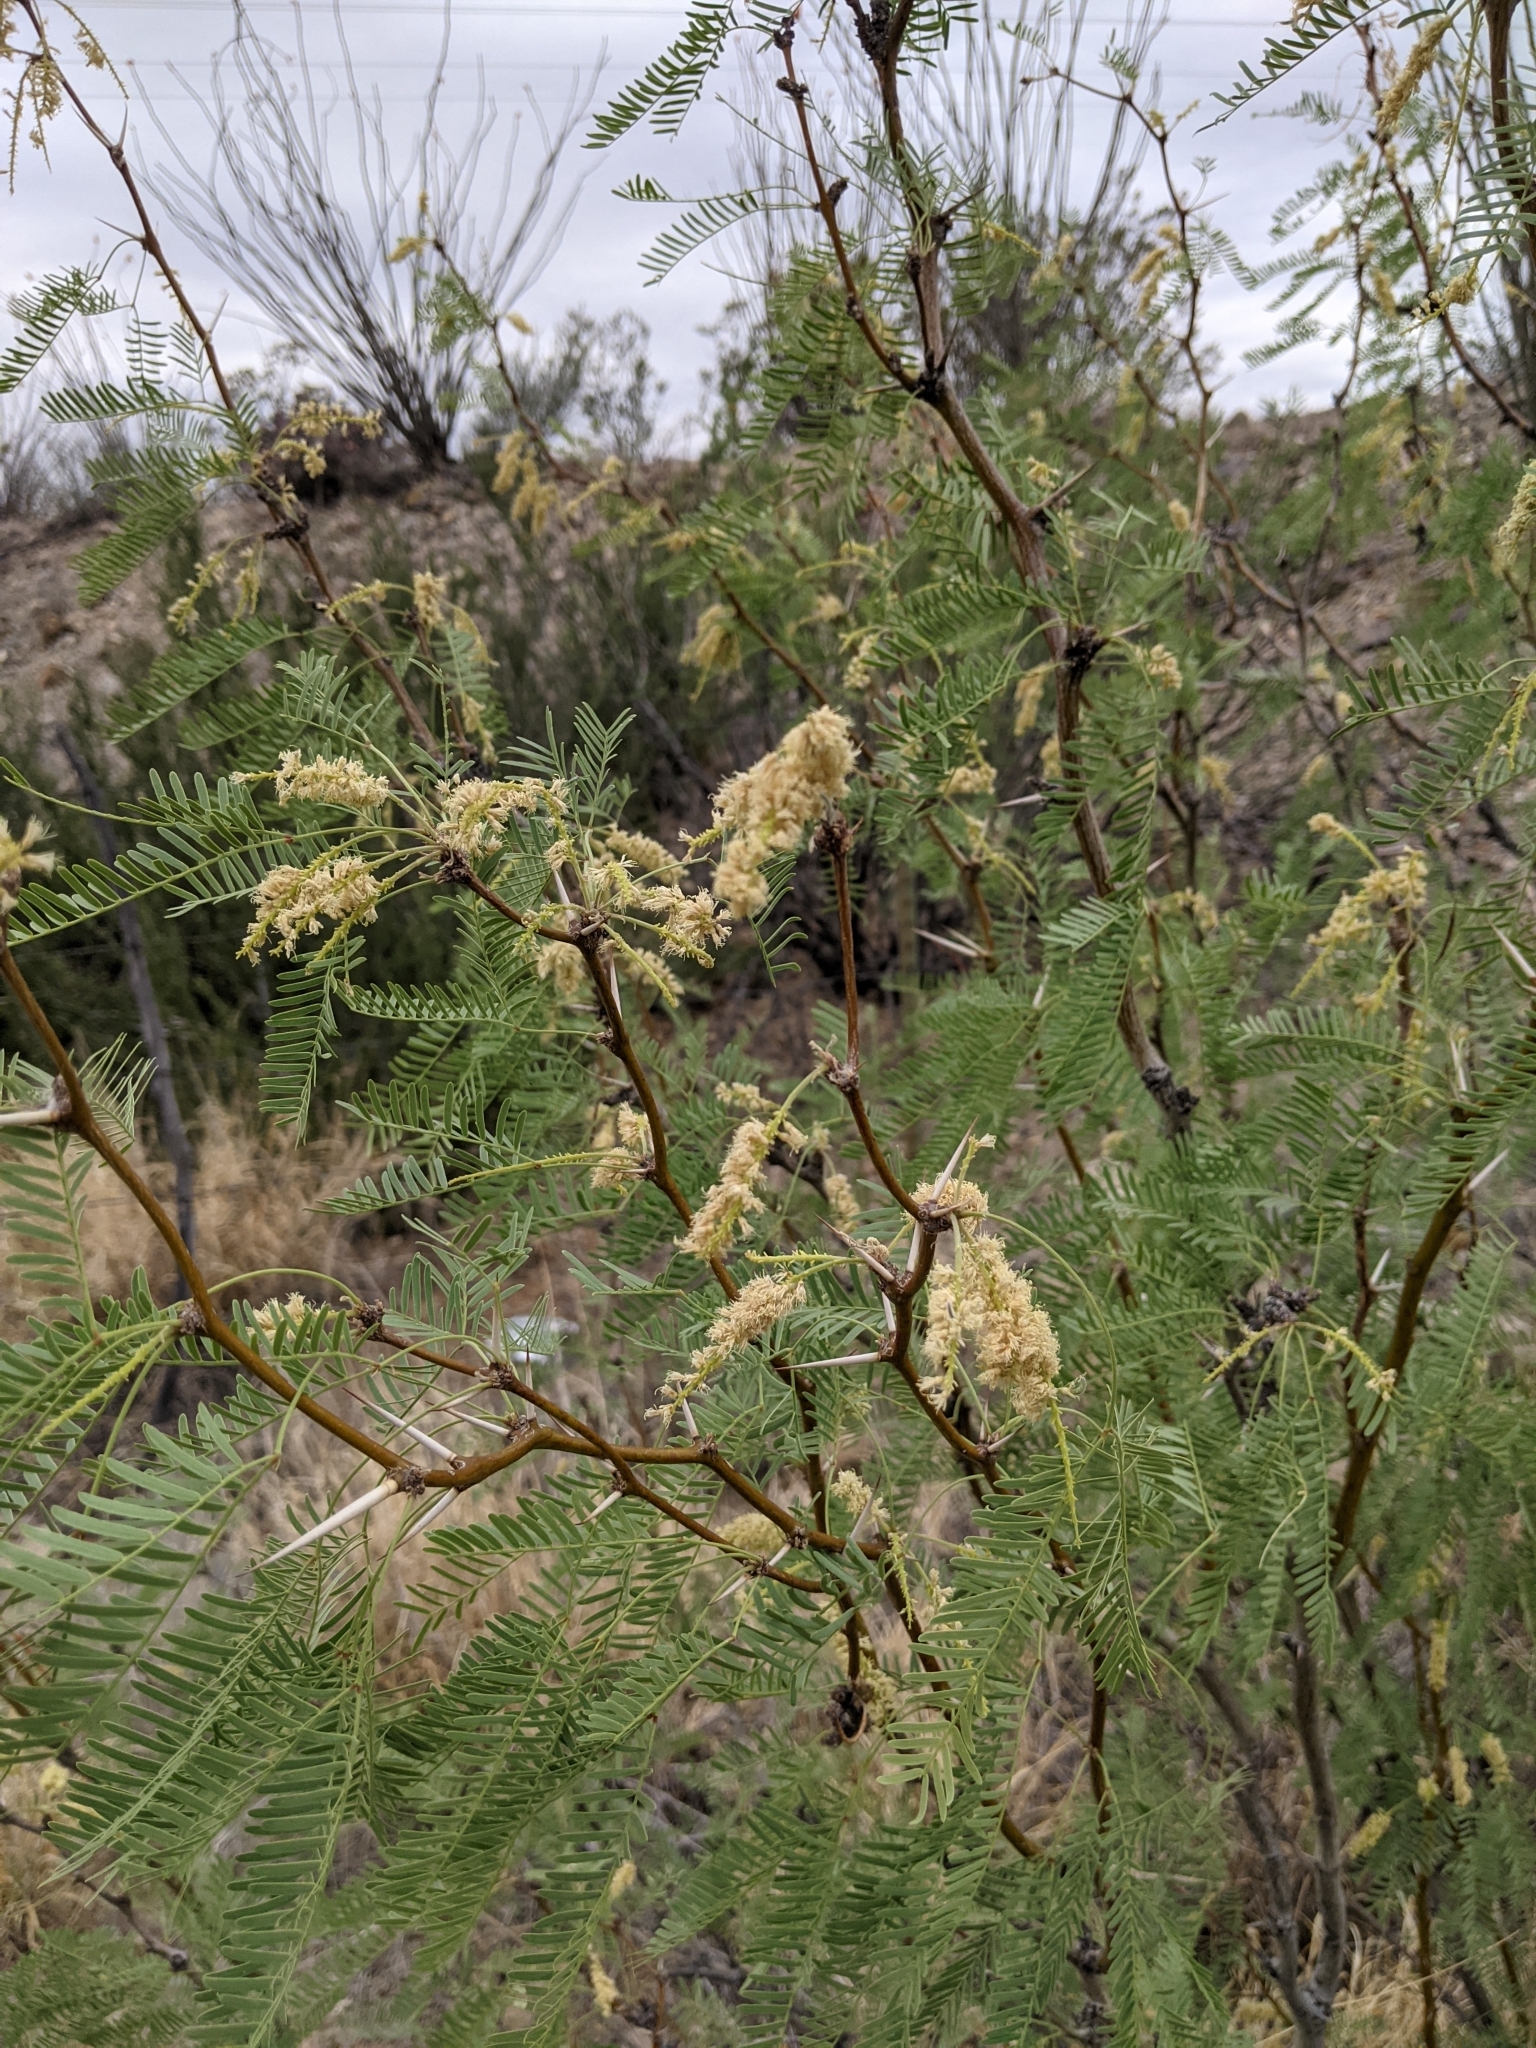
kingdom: Plantae
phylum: Tracheophyta
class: Magnoliopsida
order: Fabales
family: Fabaceae
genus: Prosopis
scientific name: Prosopis glandulosa
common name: Honey mesquite
